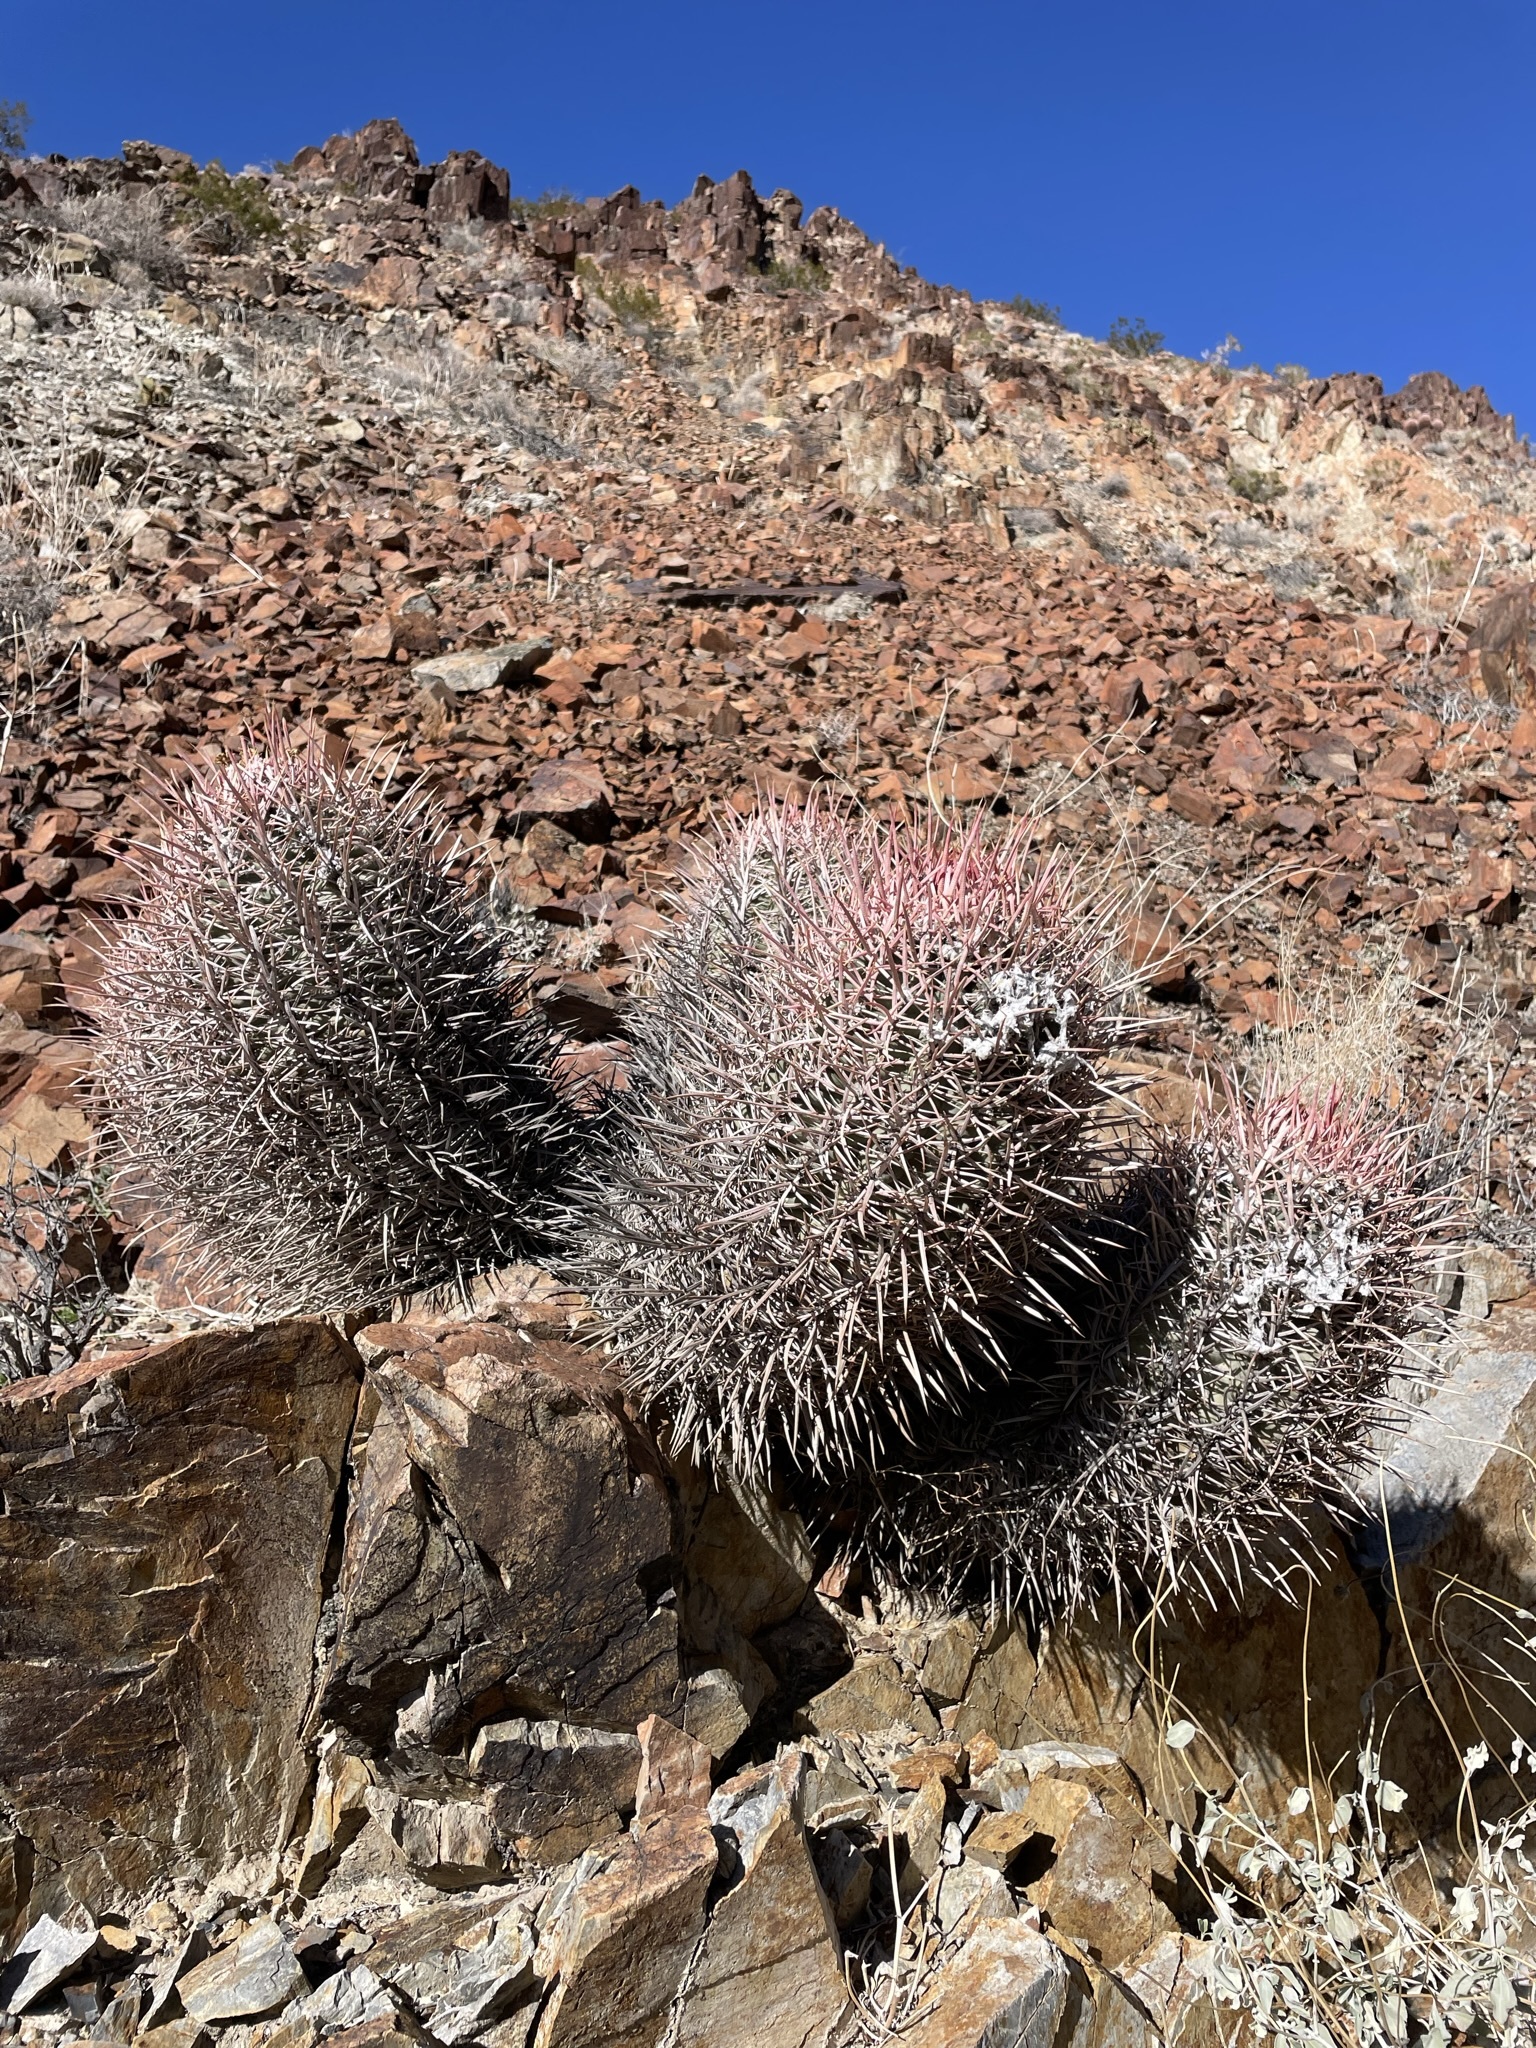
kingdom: Plantae
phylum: Tracheophyta
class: Magnoliopsida
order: Caryophyllales
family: Cactaceae
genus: Echinocactus
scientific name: Echinocactus polycephalus
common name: Cottontop cactus
